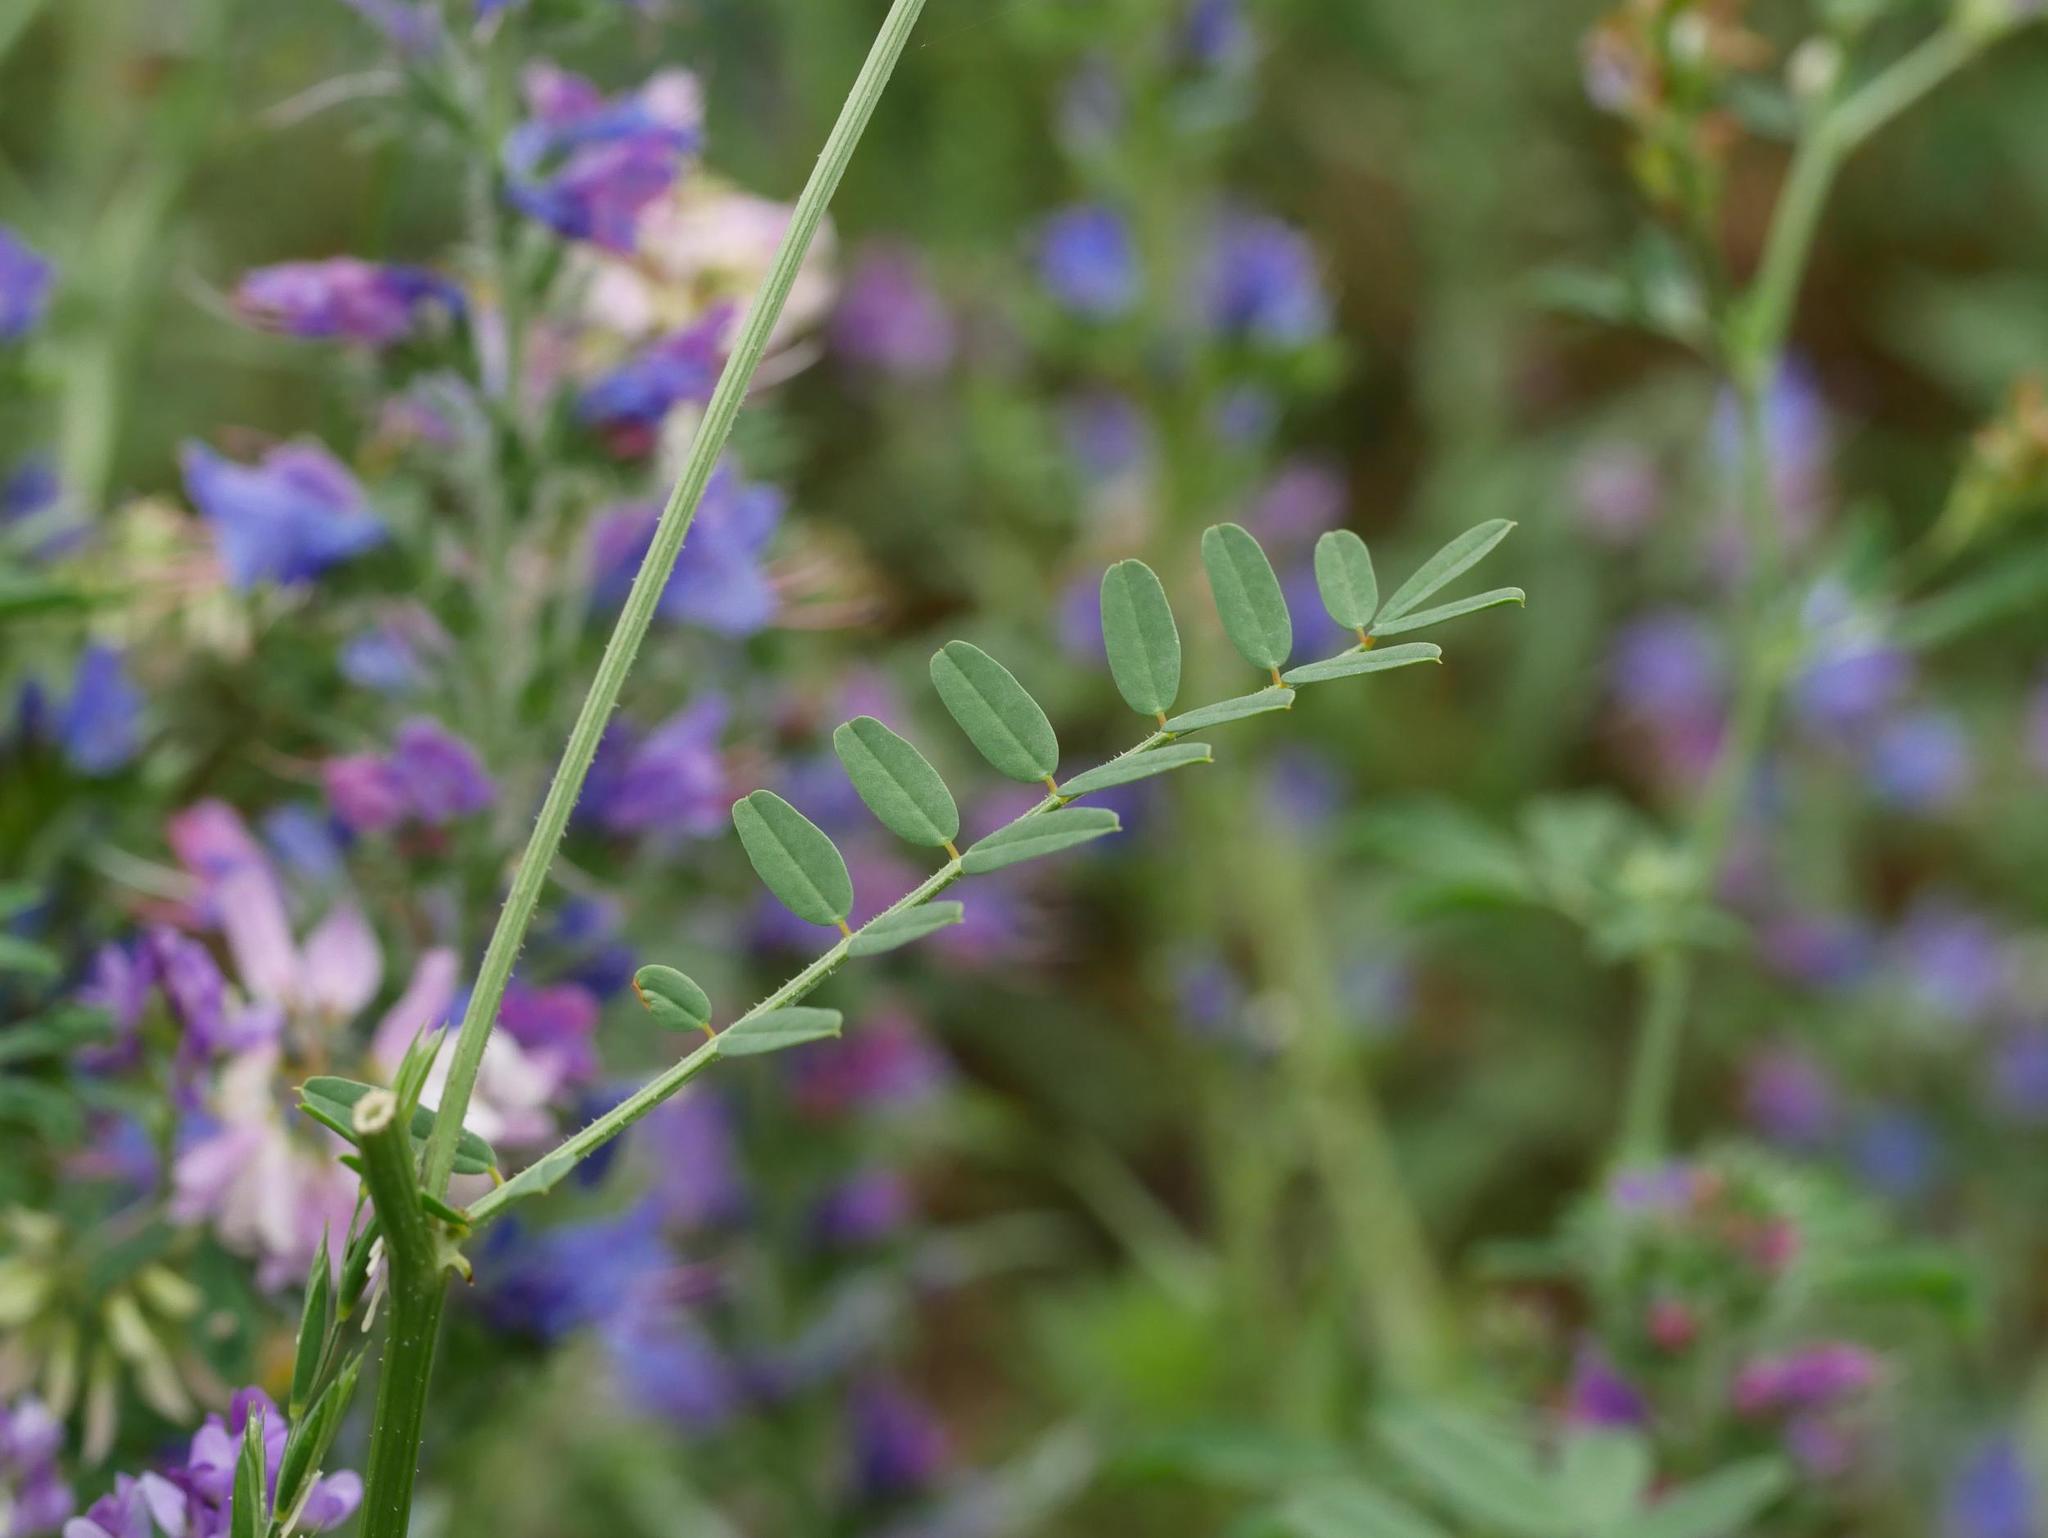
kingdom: Plantae
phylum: Tracheophyta
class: Magnoliopsida
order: Fabales
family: Fabaceae
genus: Coronilla
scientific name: Coronilla varia
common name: Crownvetch
